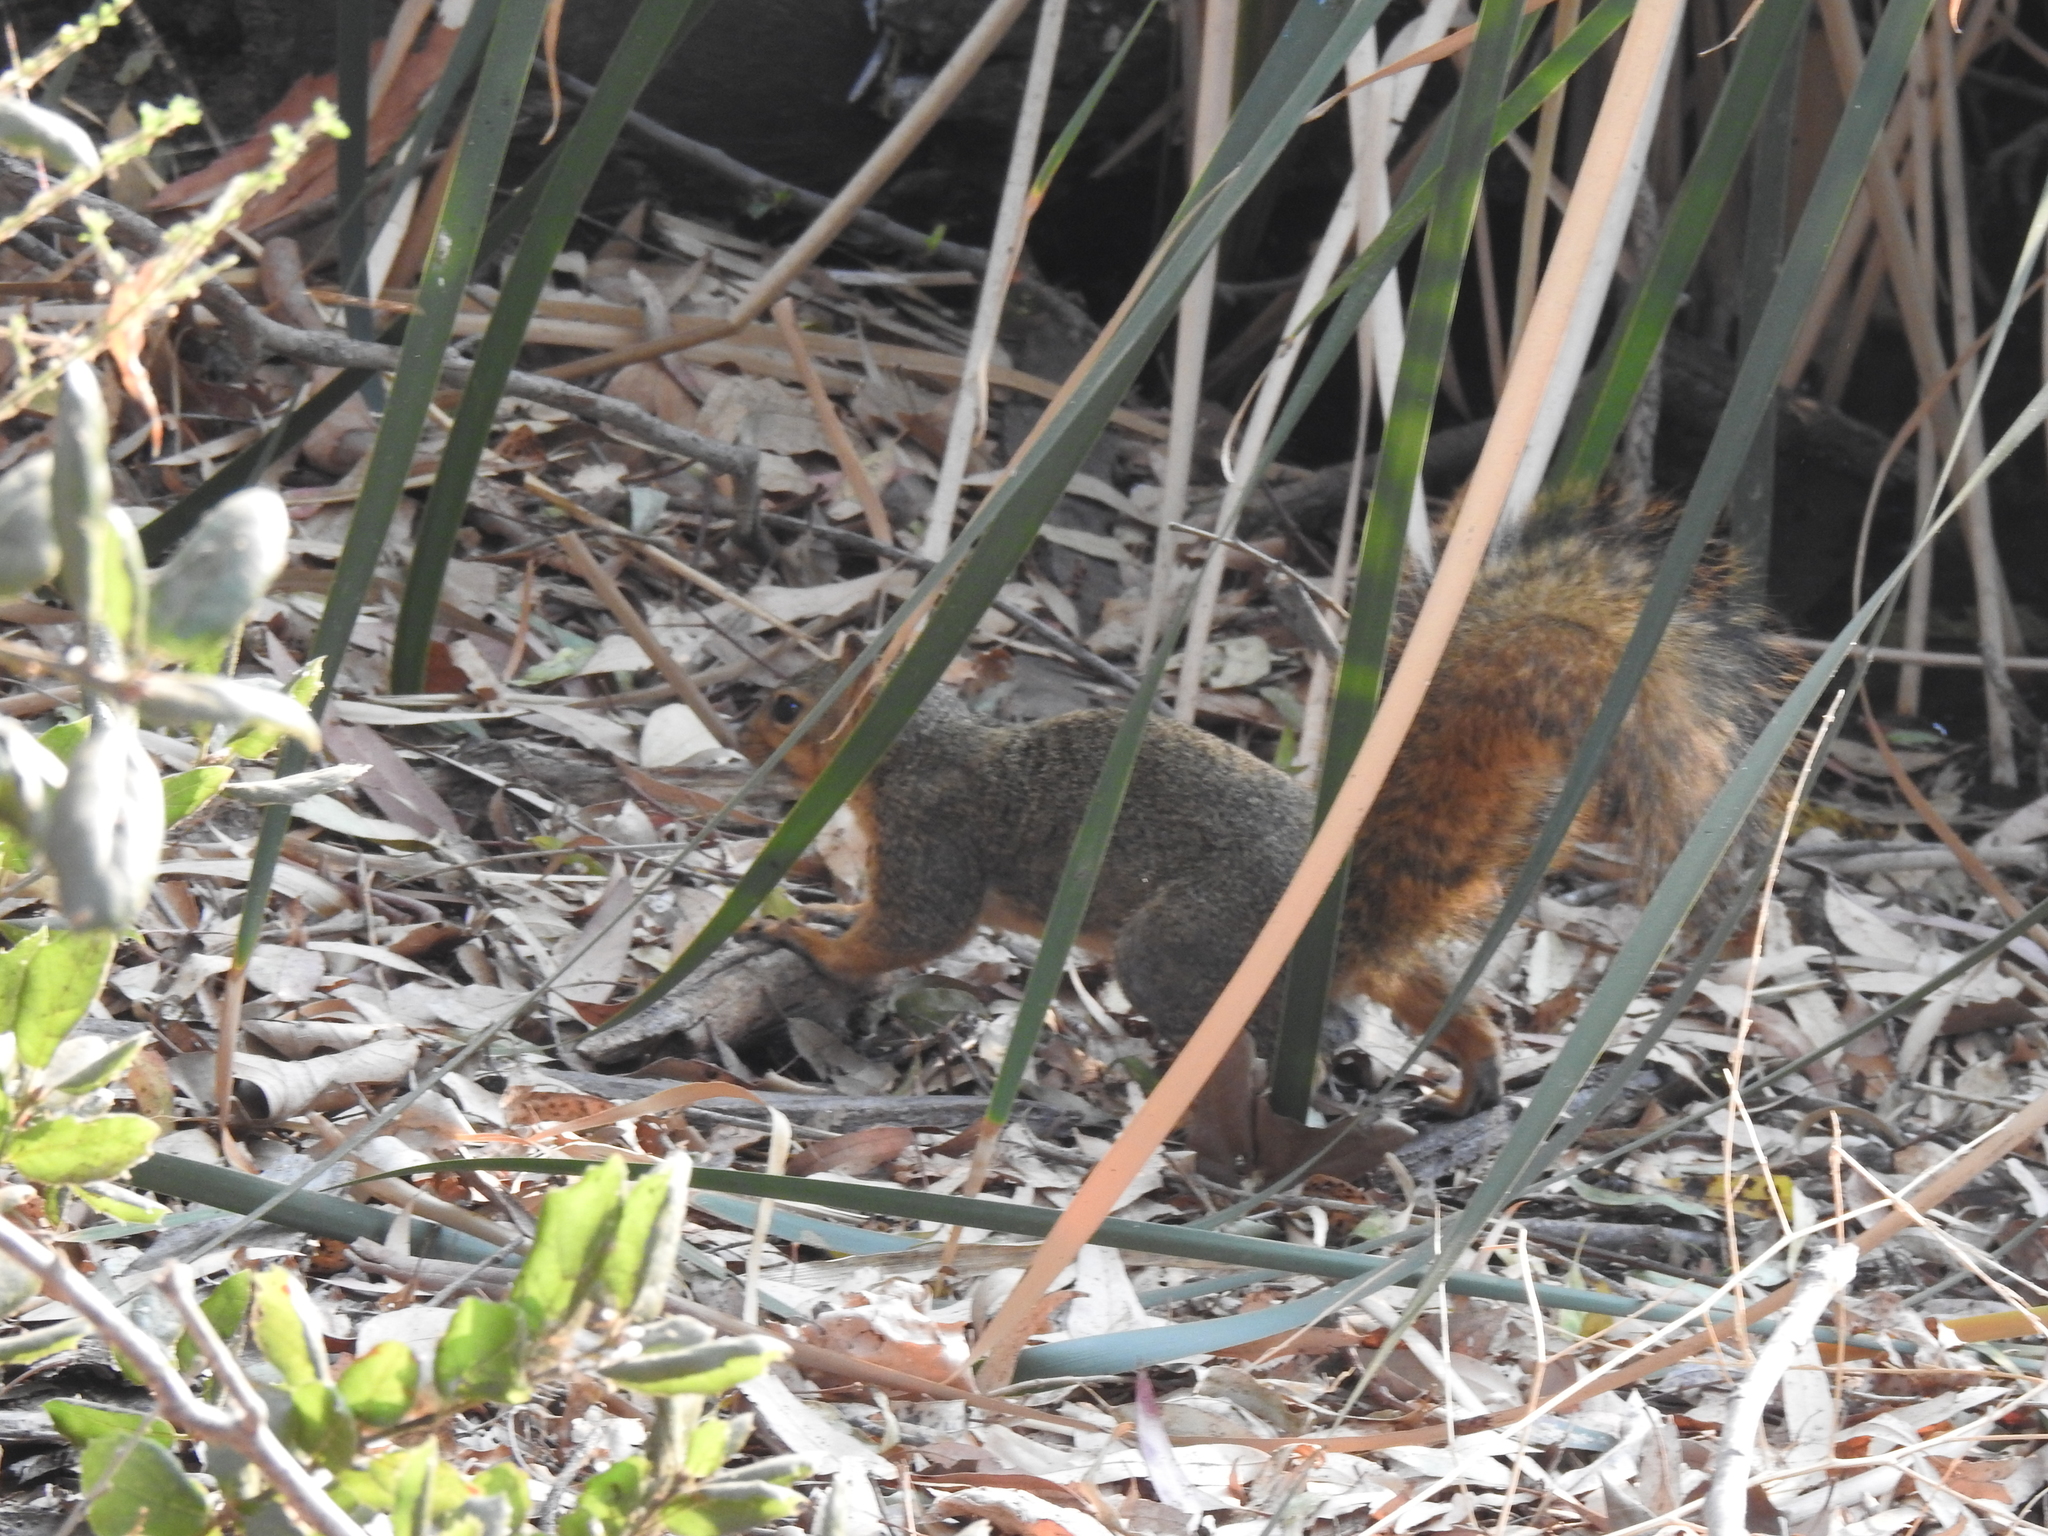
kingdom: Animalia
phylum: Chordata
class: Mammalia
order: Rodentia
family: Sciuridae
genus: Sciurus
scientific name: Sciurus niger
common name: Fox squirrel
